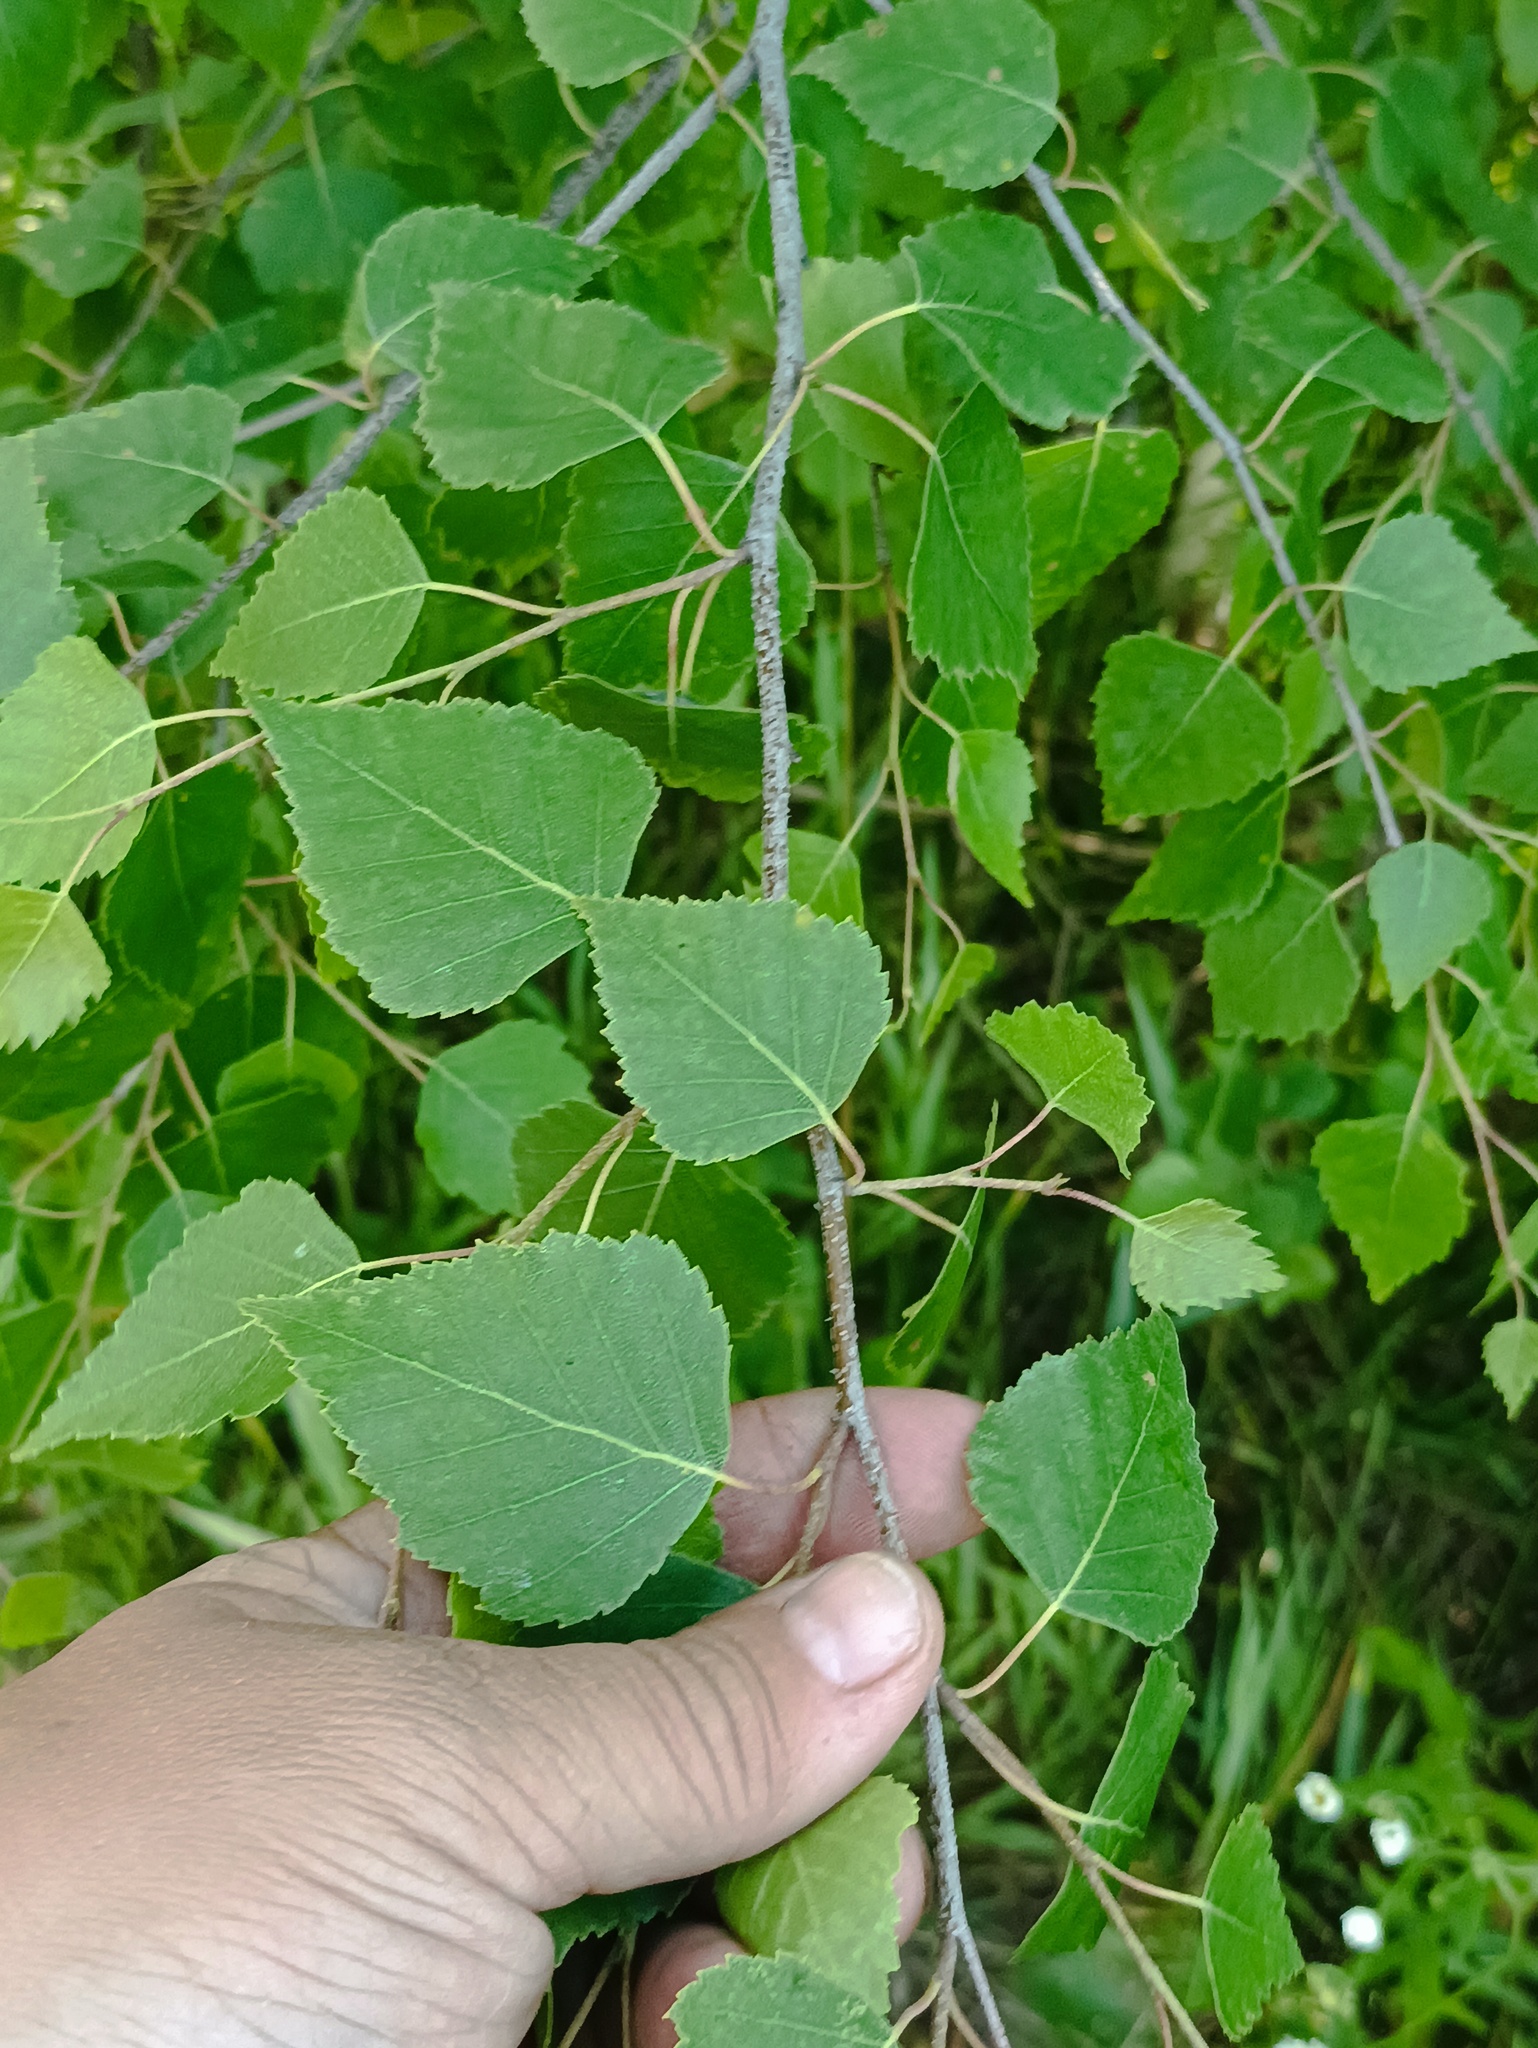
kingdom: Plantae
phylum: Tracheophyta
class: Magnoliopsida
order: Fagales
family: Betulaceae
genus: Betula
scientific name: Betula pendula
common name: Silver birch
